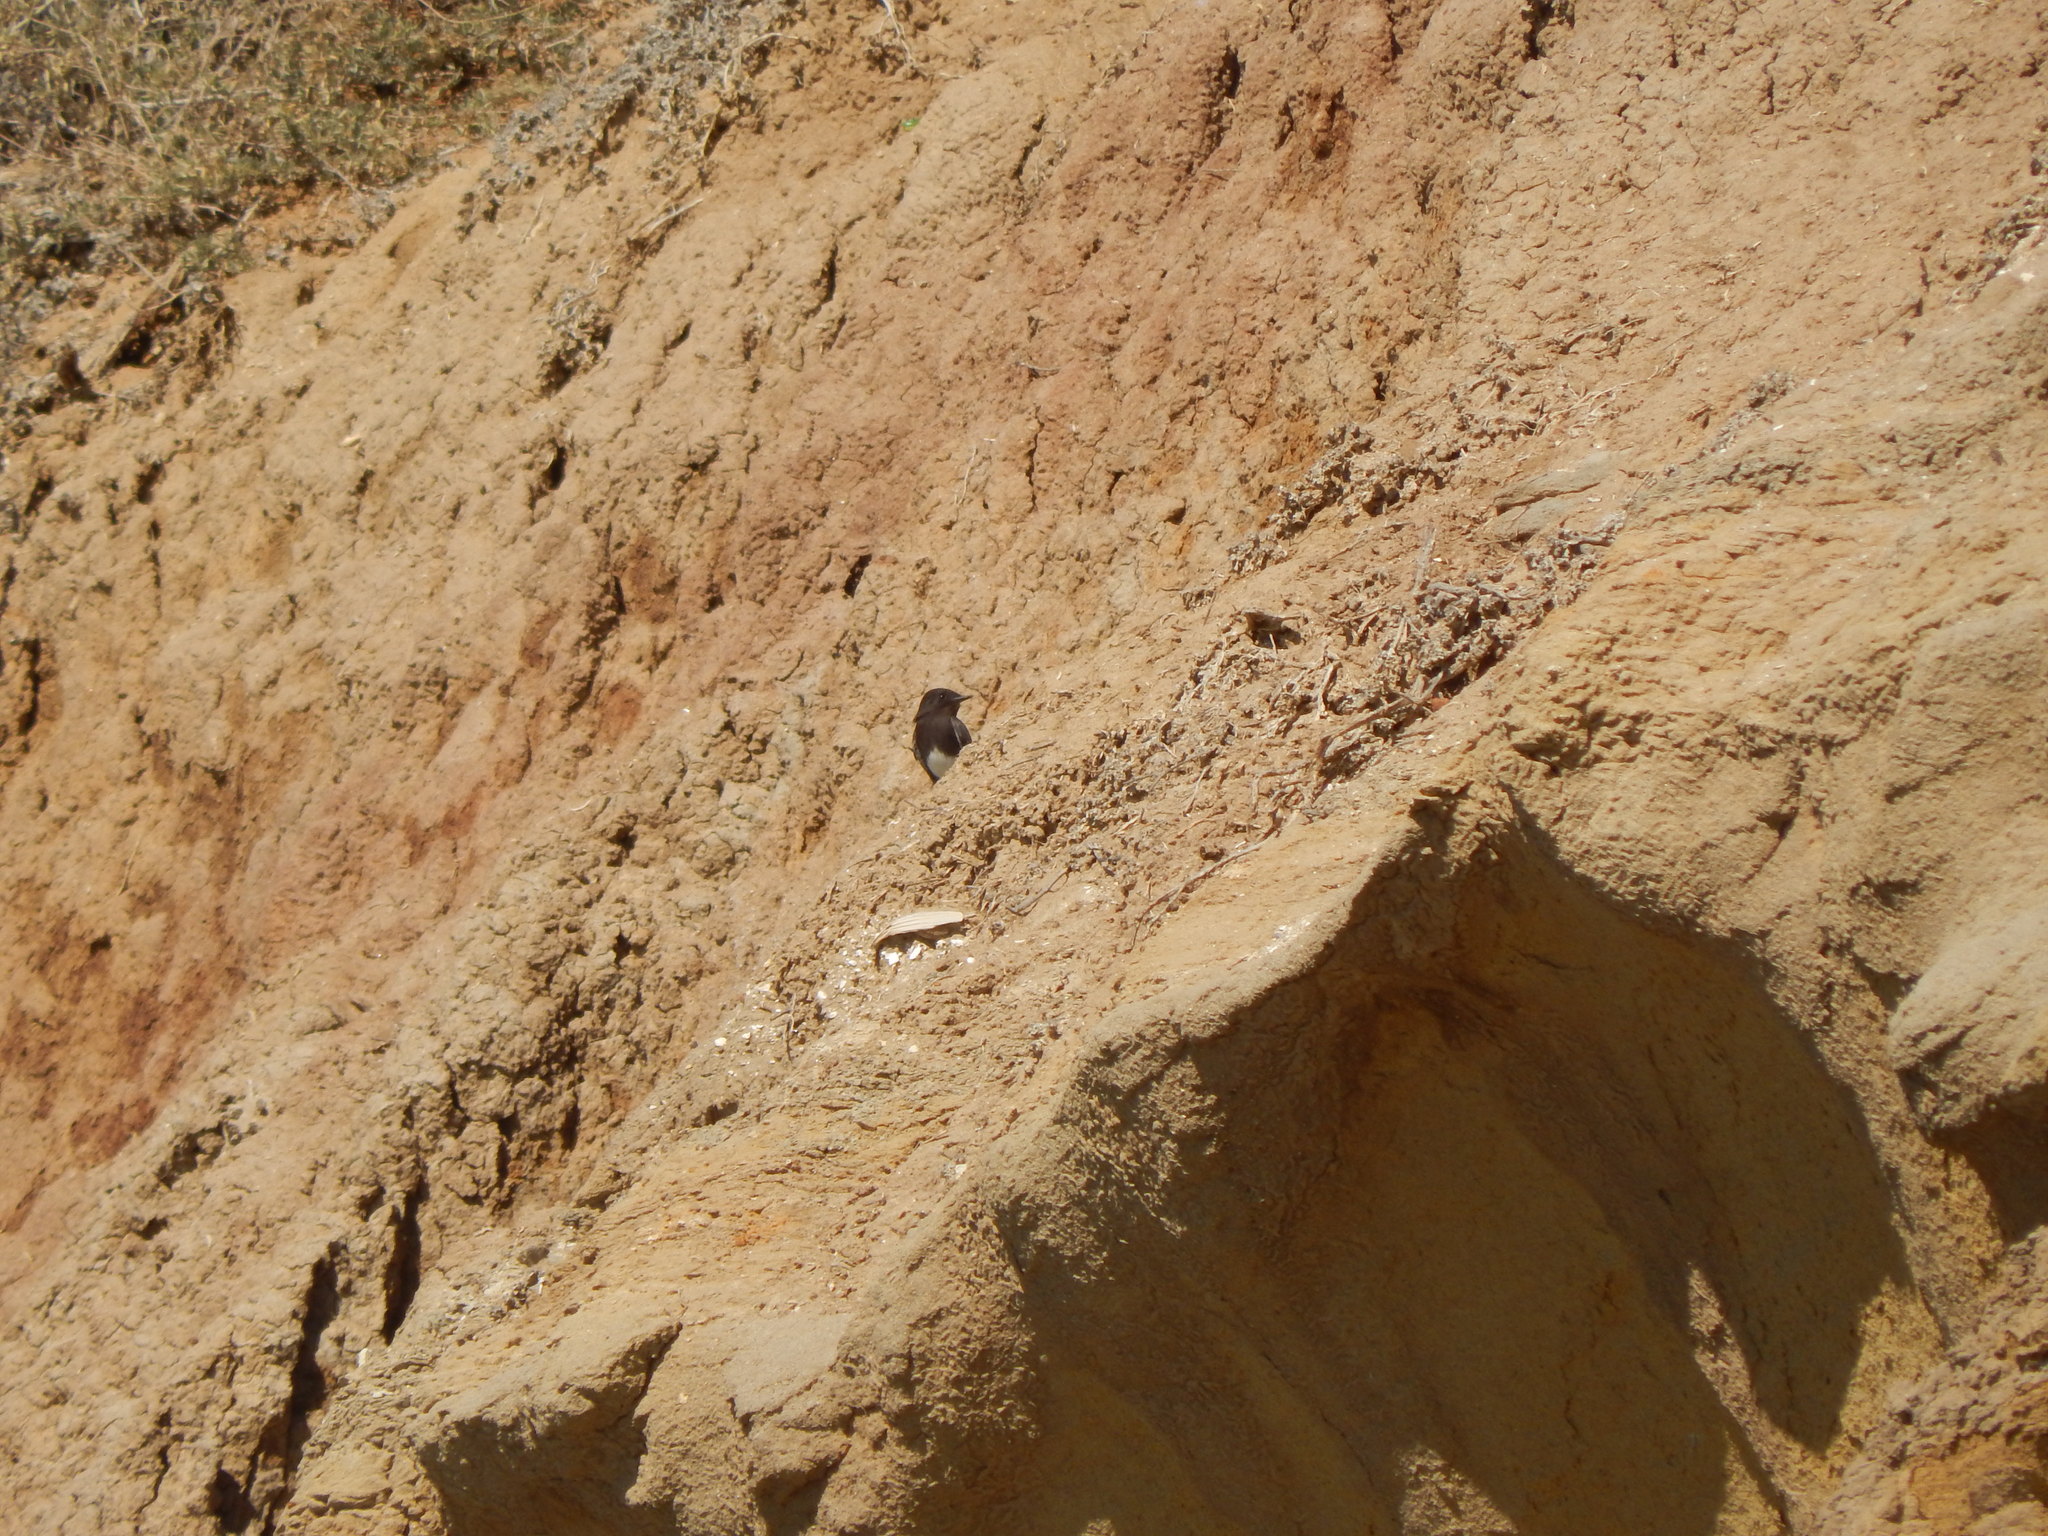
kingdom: Animalia
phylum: Chordata
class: Aves
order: Passeriformes
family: Tyrannidae
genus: Sayornis
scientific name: Sayornis nigricans
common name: Black phoebe
